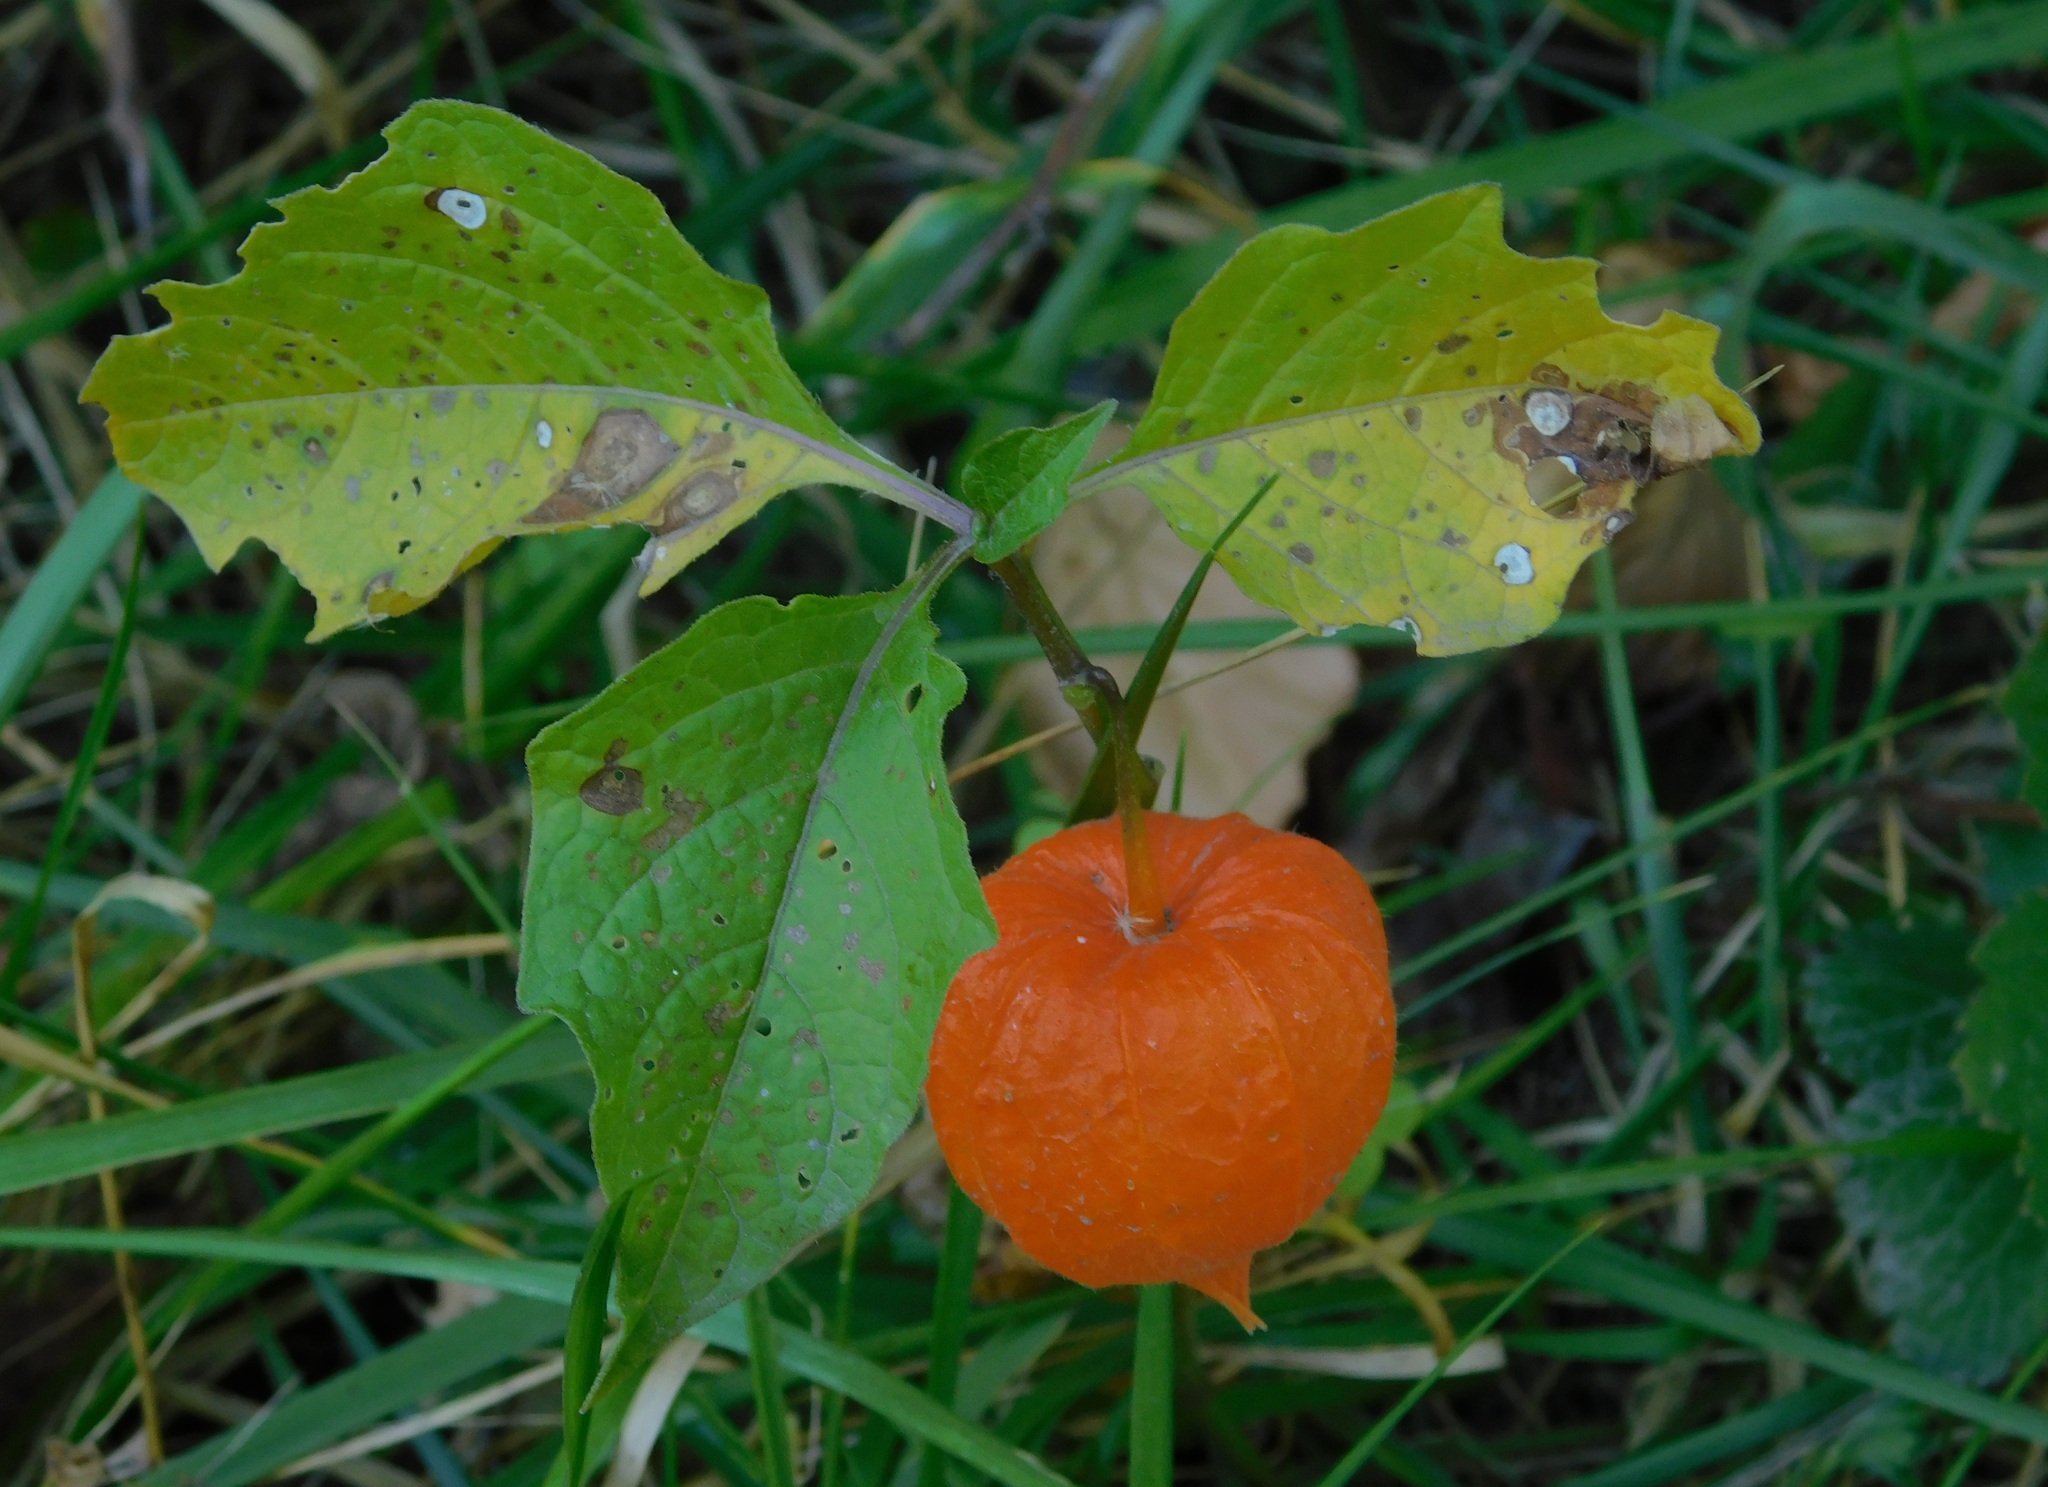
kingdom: Plantae
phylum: Tracheophyta
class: Magnoliopsida
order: Solanales
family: Solanaceae
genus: Alkekengi
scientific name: Alkekengi officinarum
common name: Japanese-lantern
